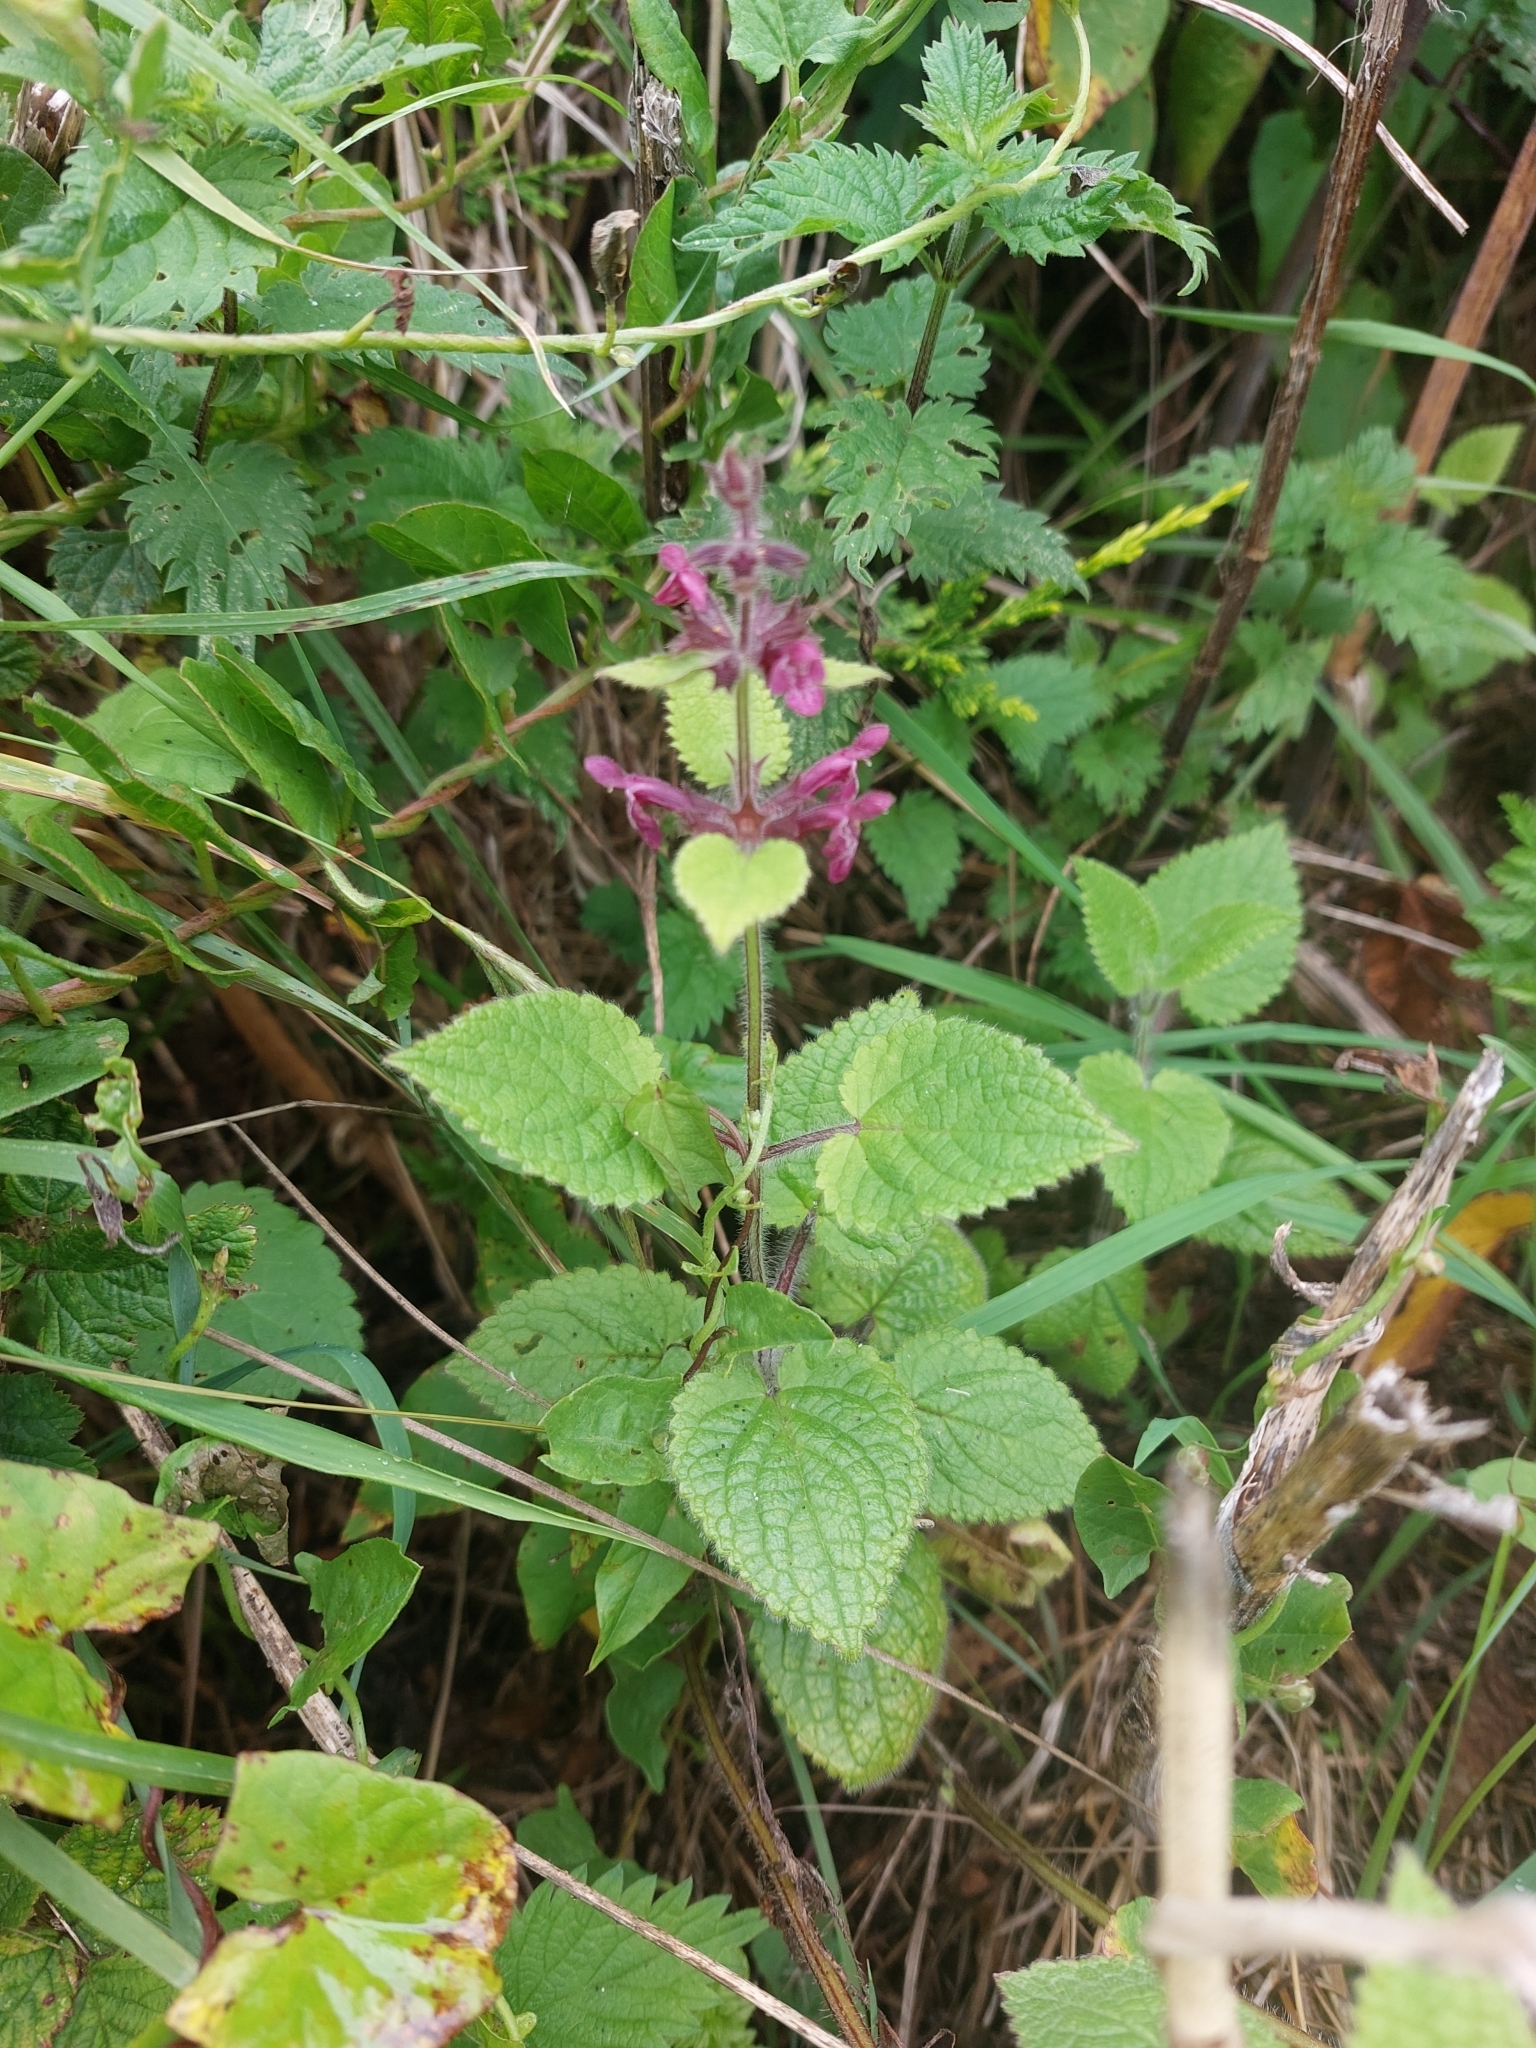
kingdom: Plantae
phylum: Tracheophyta
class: Magnoliopsida
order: Lamiales
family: Lamiaceae
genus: Stachys
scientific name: Stachys sylvatica
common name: Hedge woundwort
